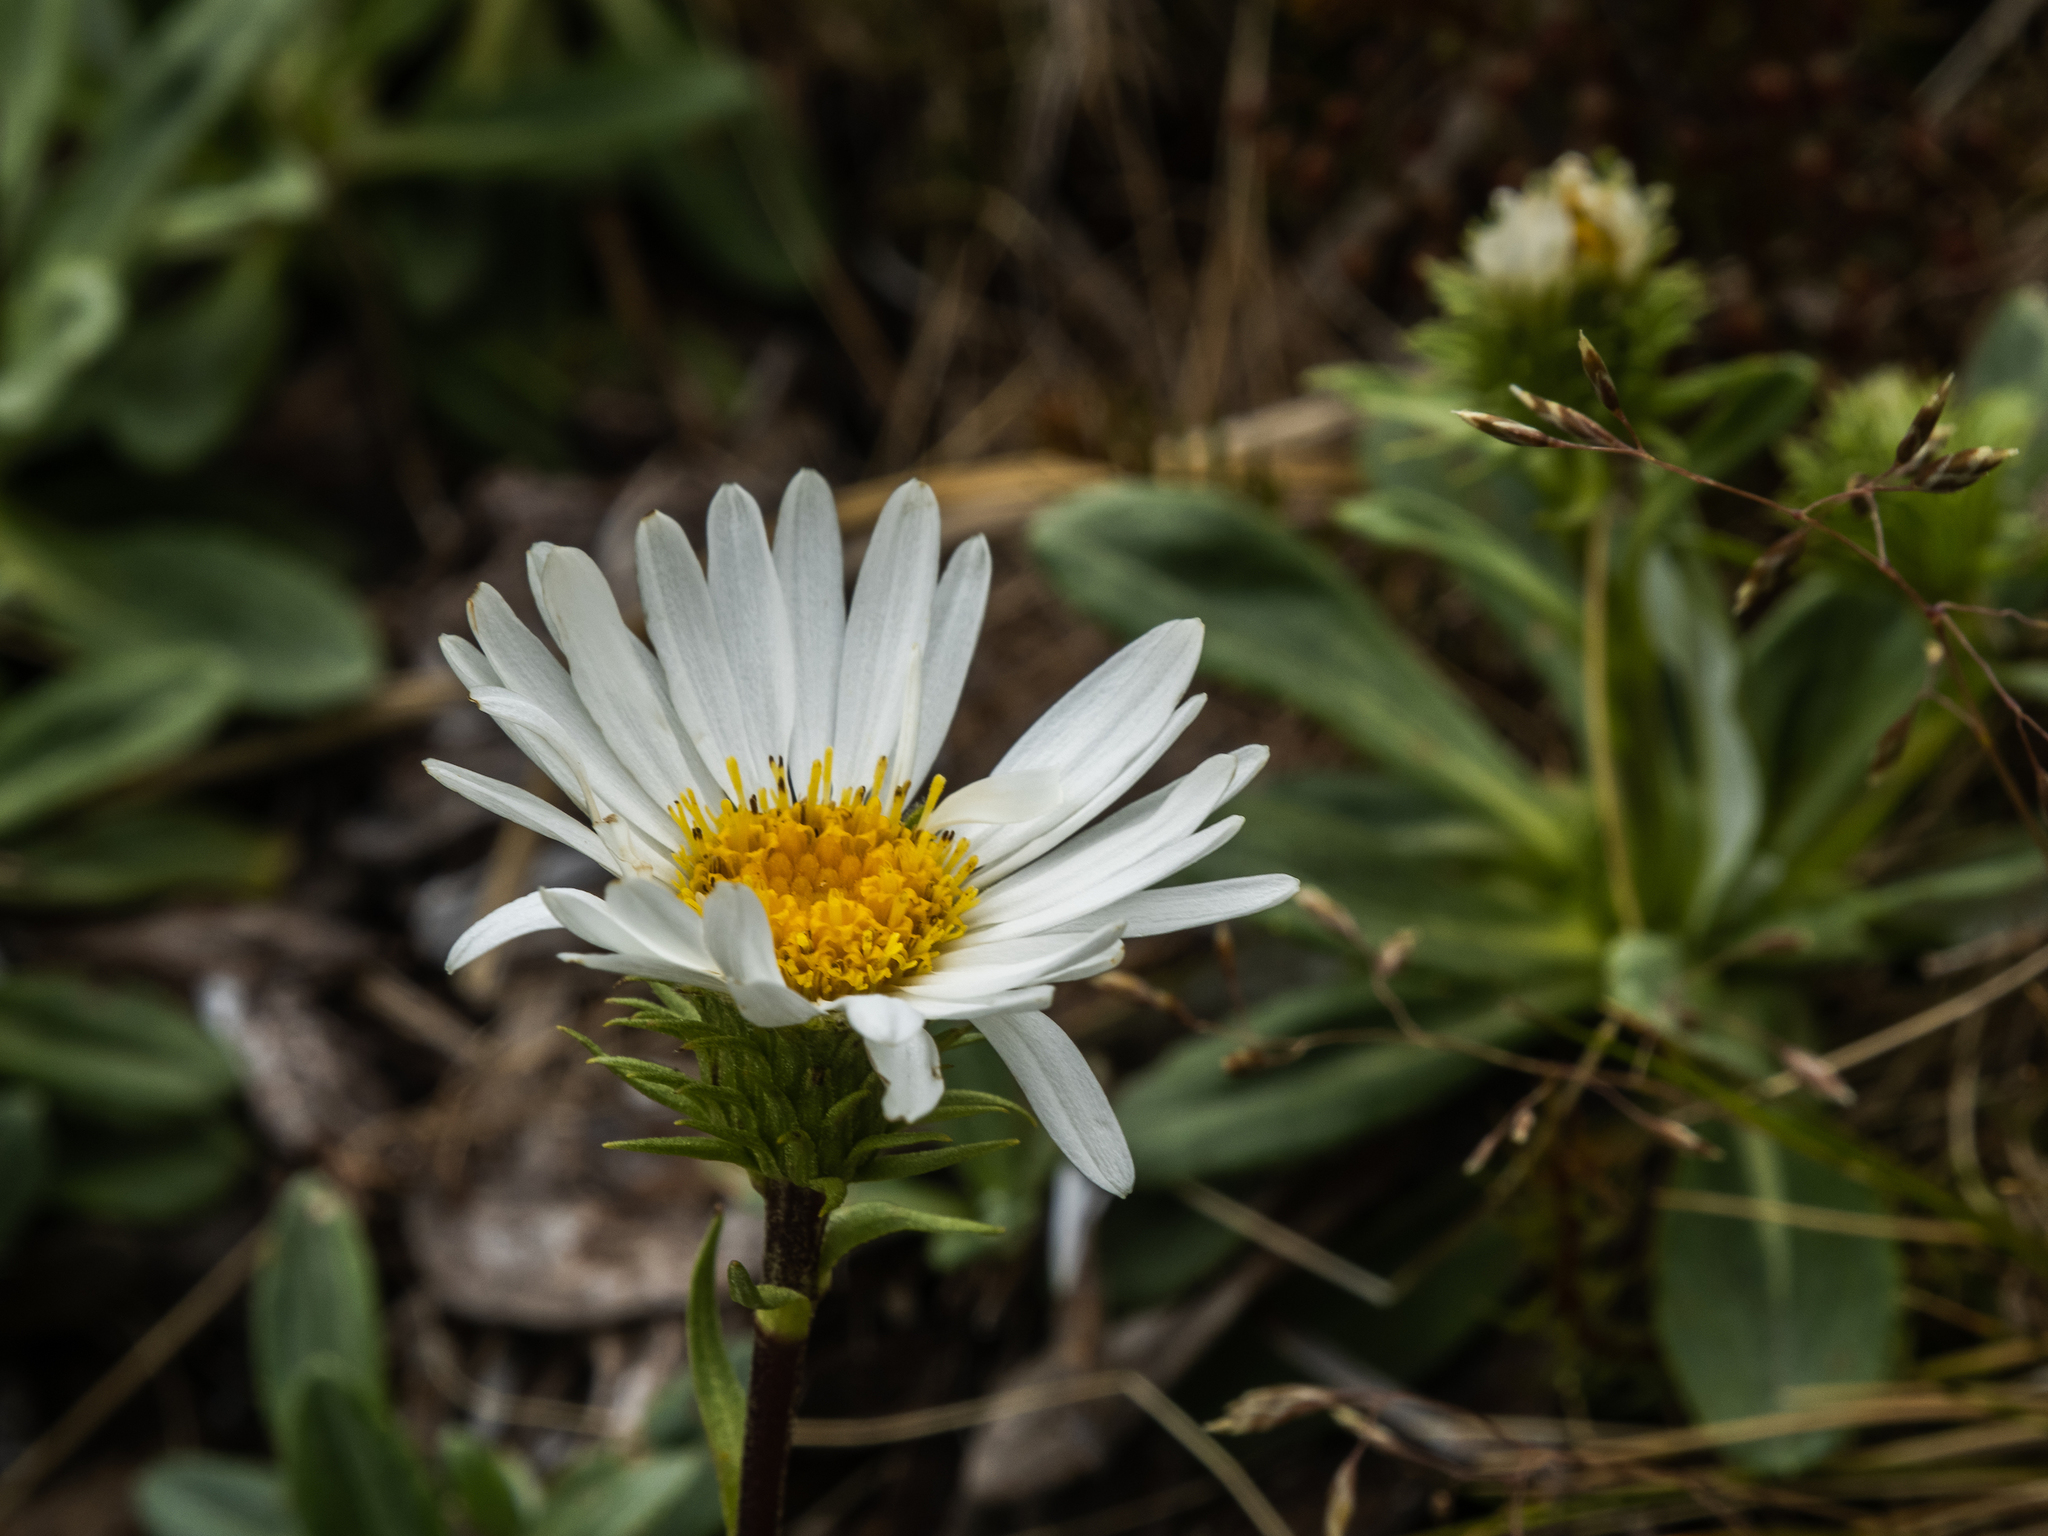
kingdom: Plantae
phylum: Tracheophyta
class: Magnoliopsida
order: Asterales
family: Asteraceae
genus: Celmisia
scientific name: Celmisia durietzii
